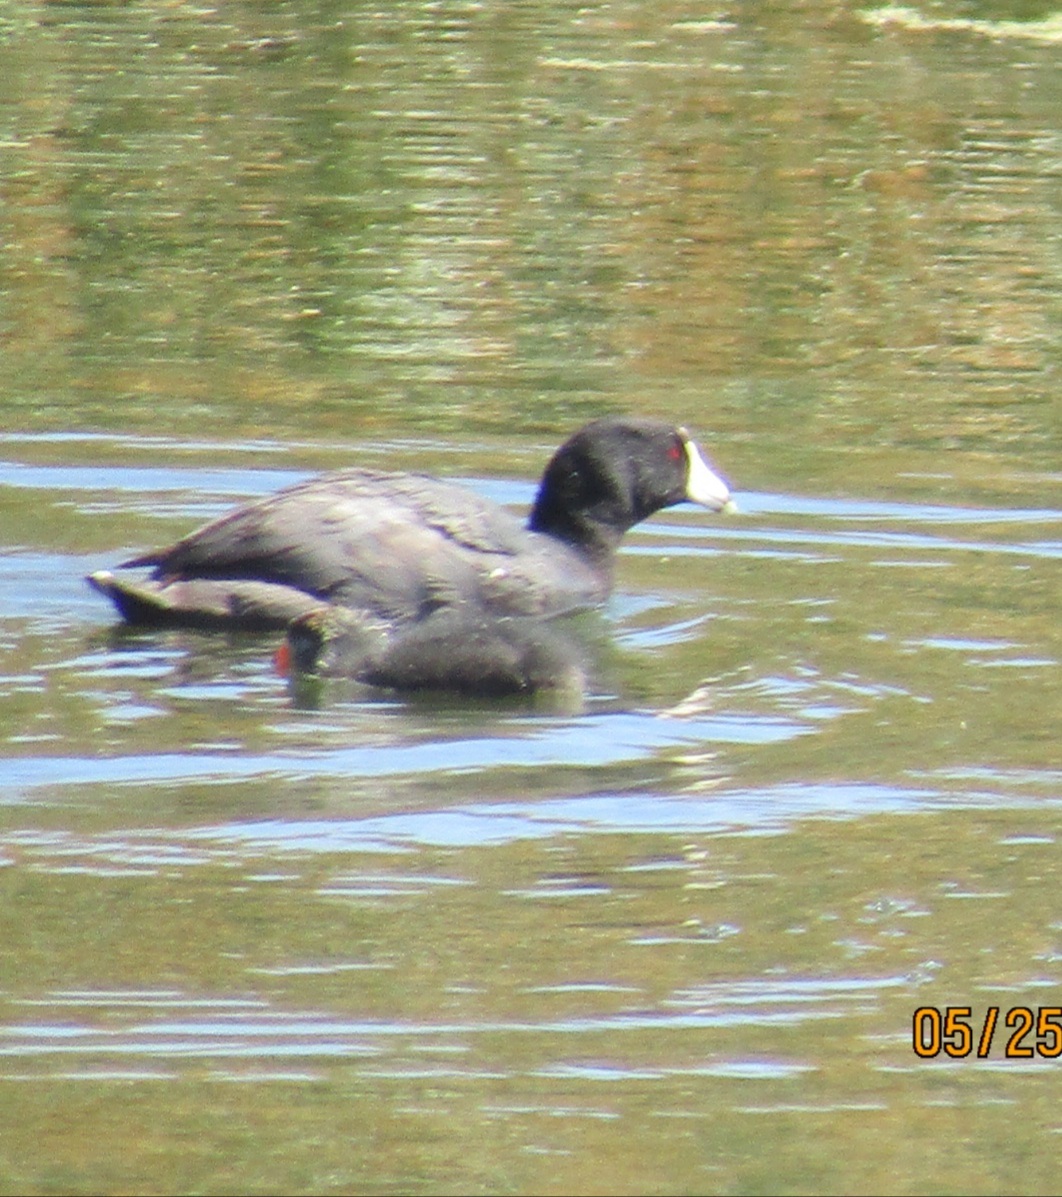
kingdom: Animalia
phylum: Chordata
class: Aves
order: Gruiformes
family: Rallidae
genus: Fulica
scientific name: Fulica americana
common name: American coot
